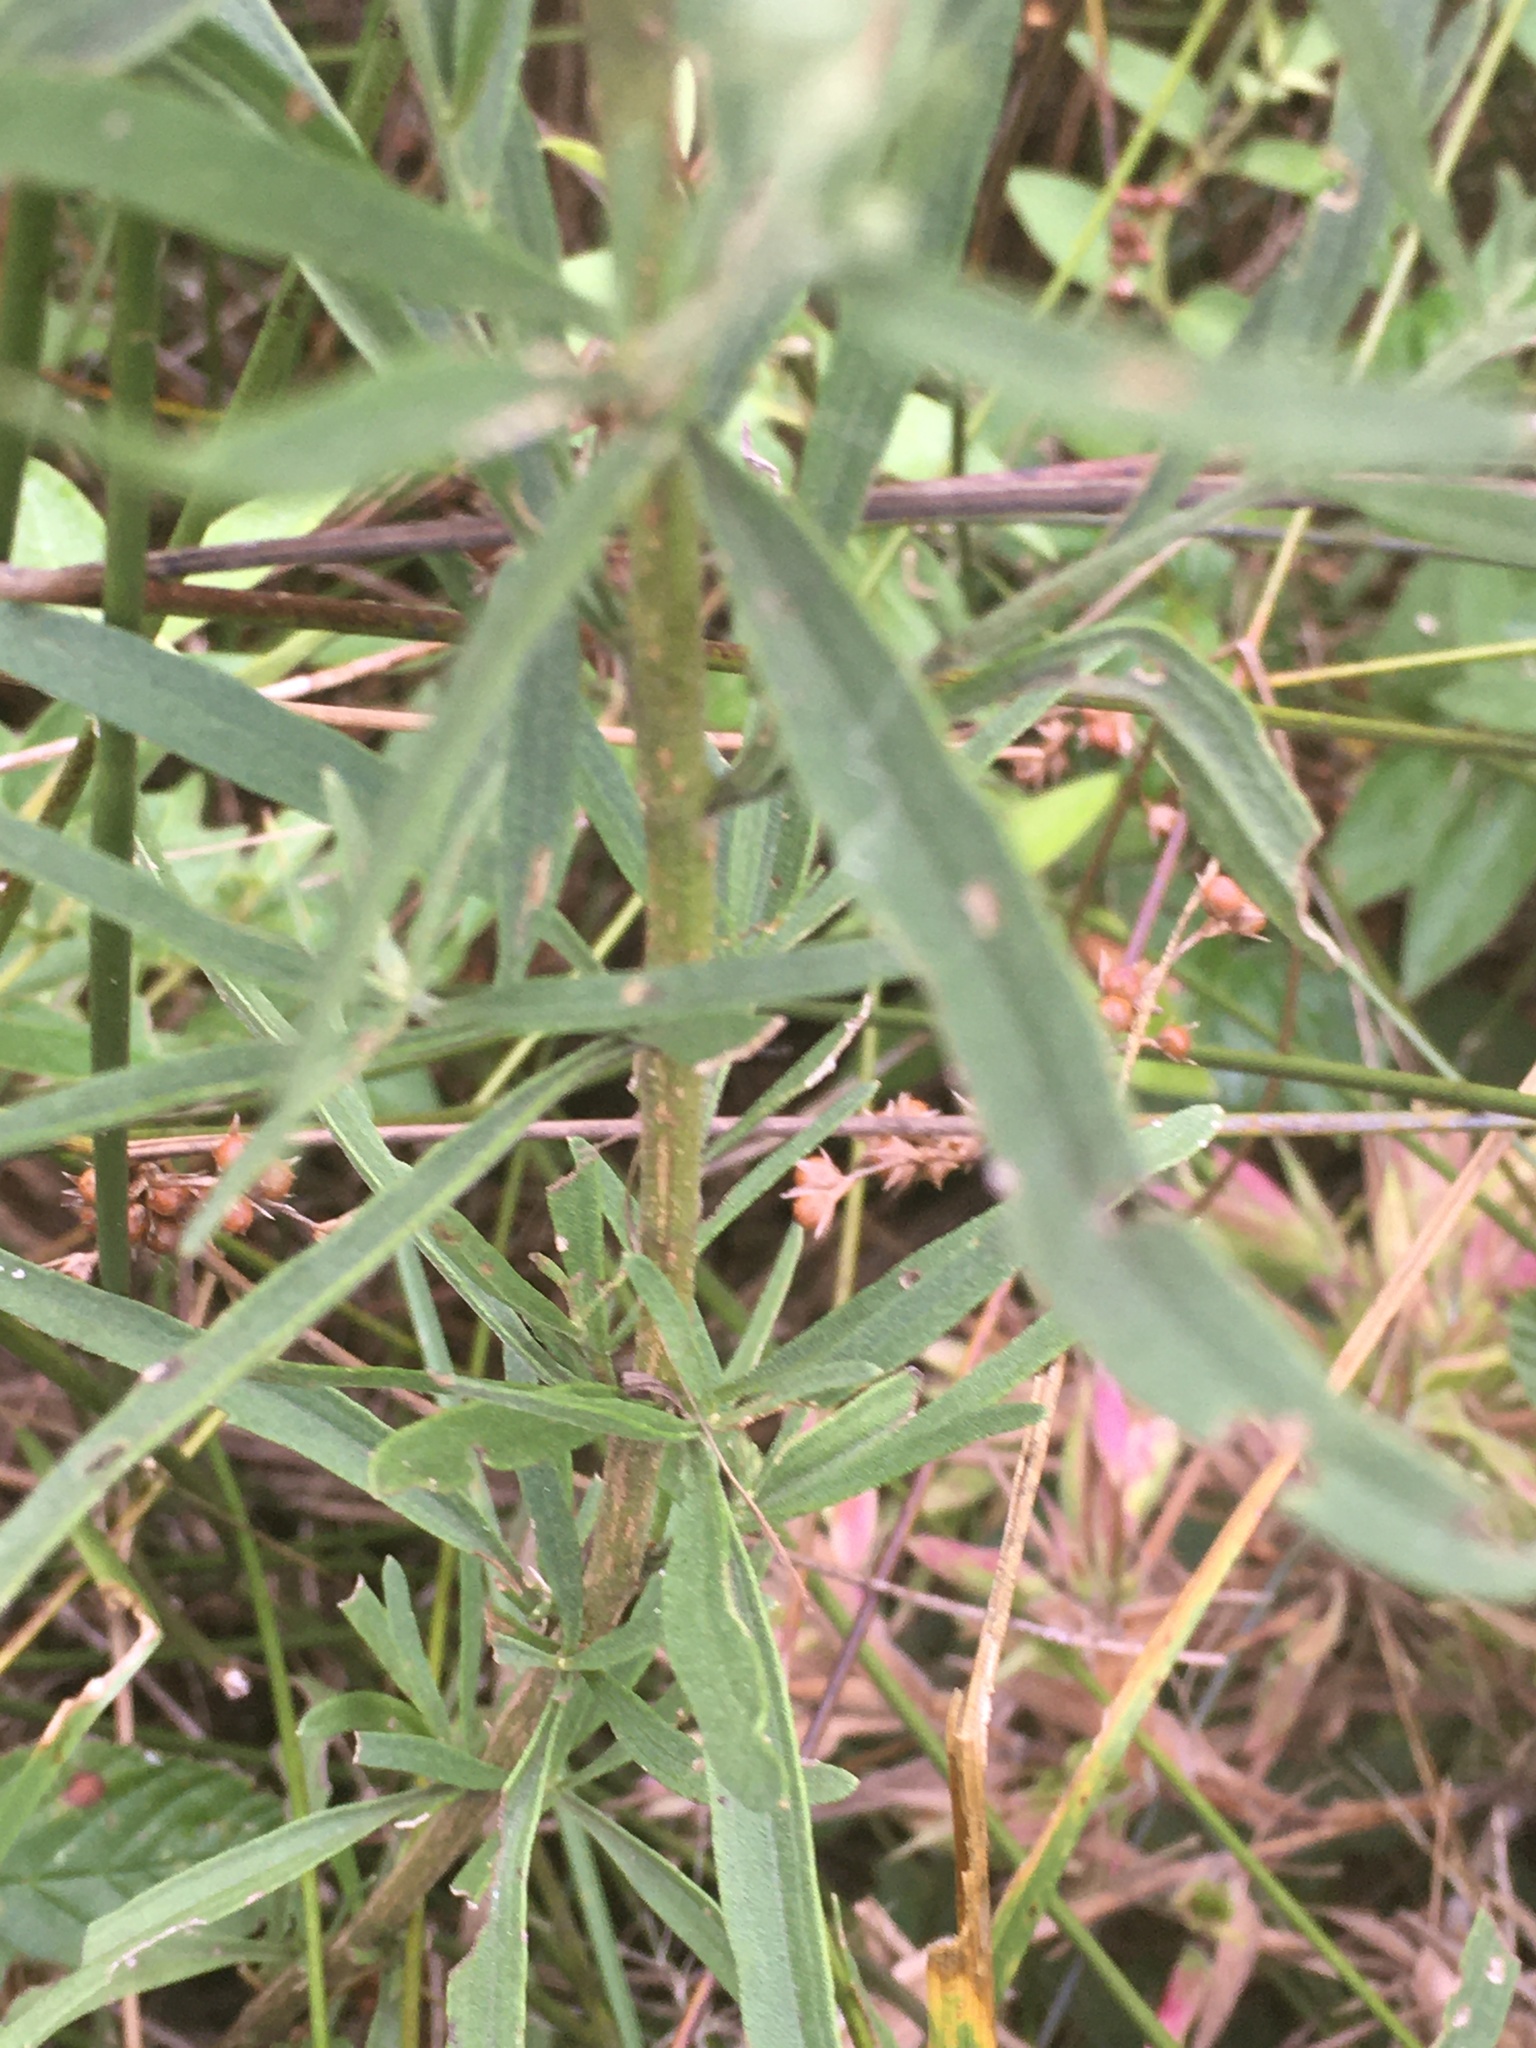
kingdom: Plantae
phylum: Tracheophyta
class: Magnoliopsida
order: Asterales
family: Asteraceae
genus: Eupatorium
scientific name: Eupatorium torreyanum
